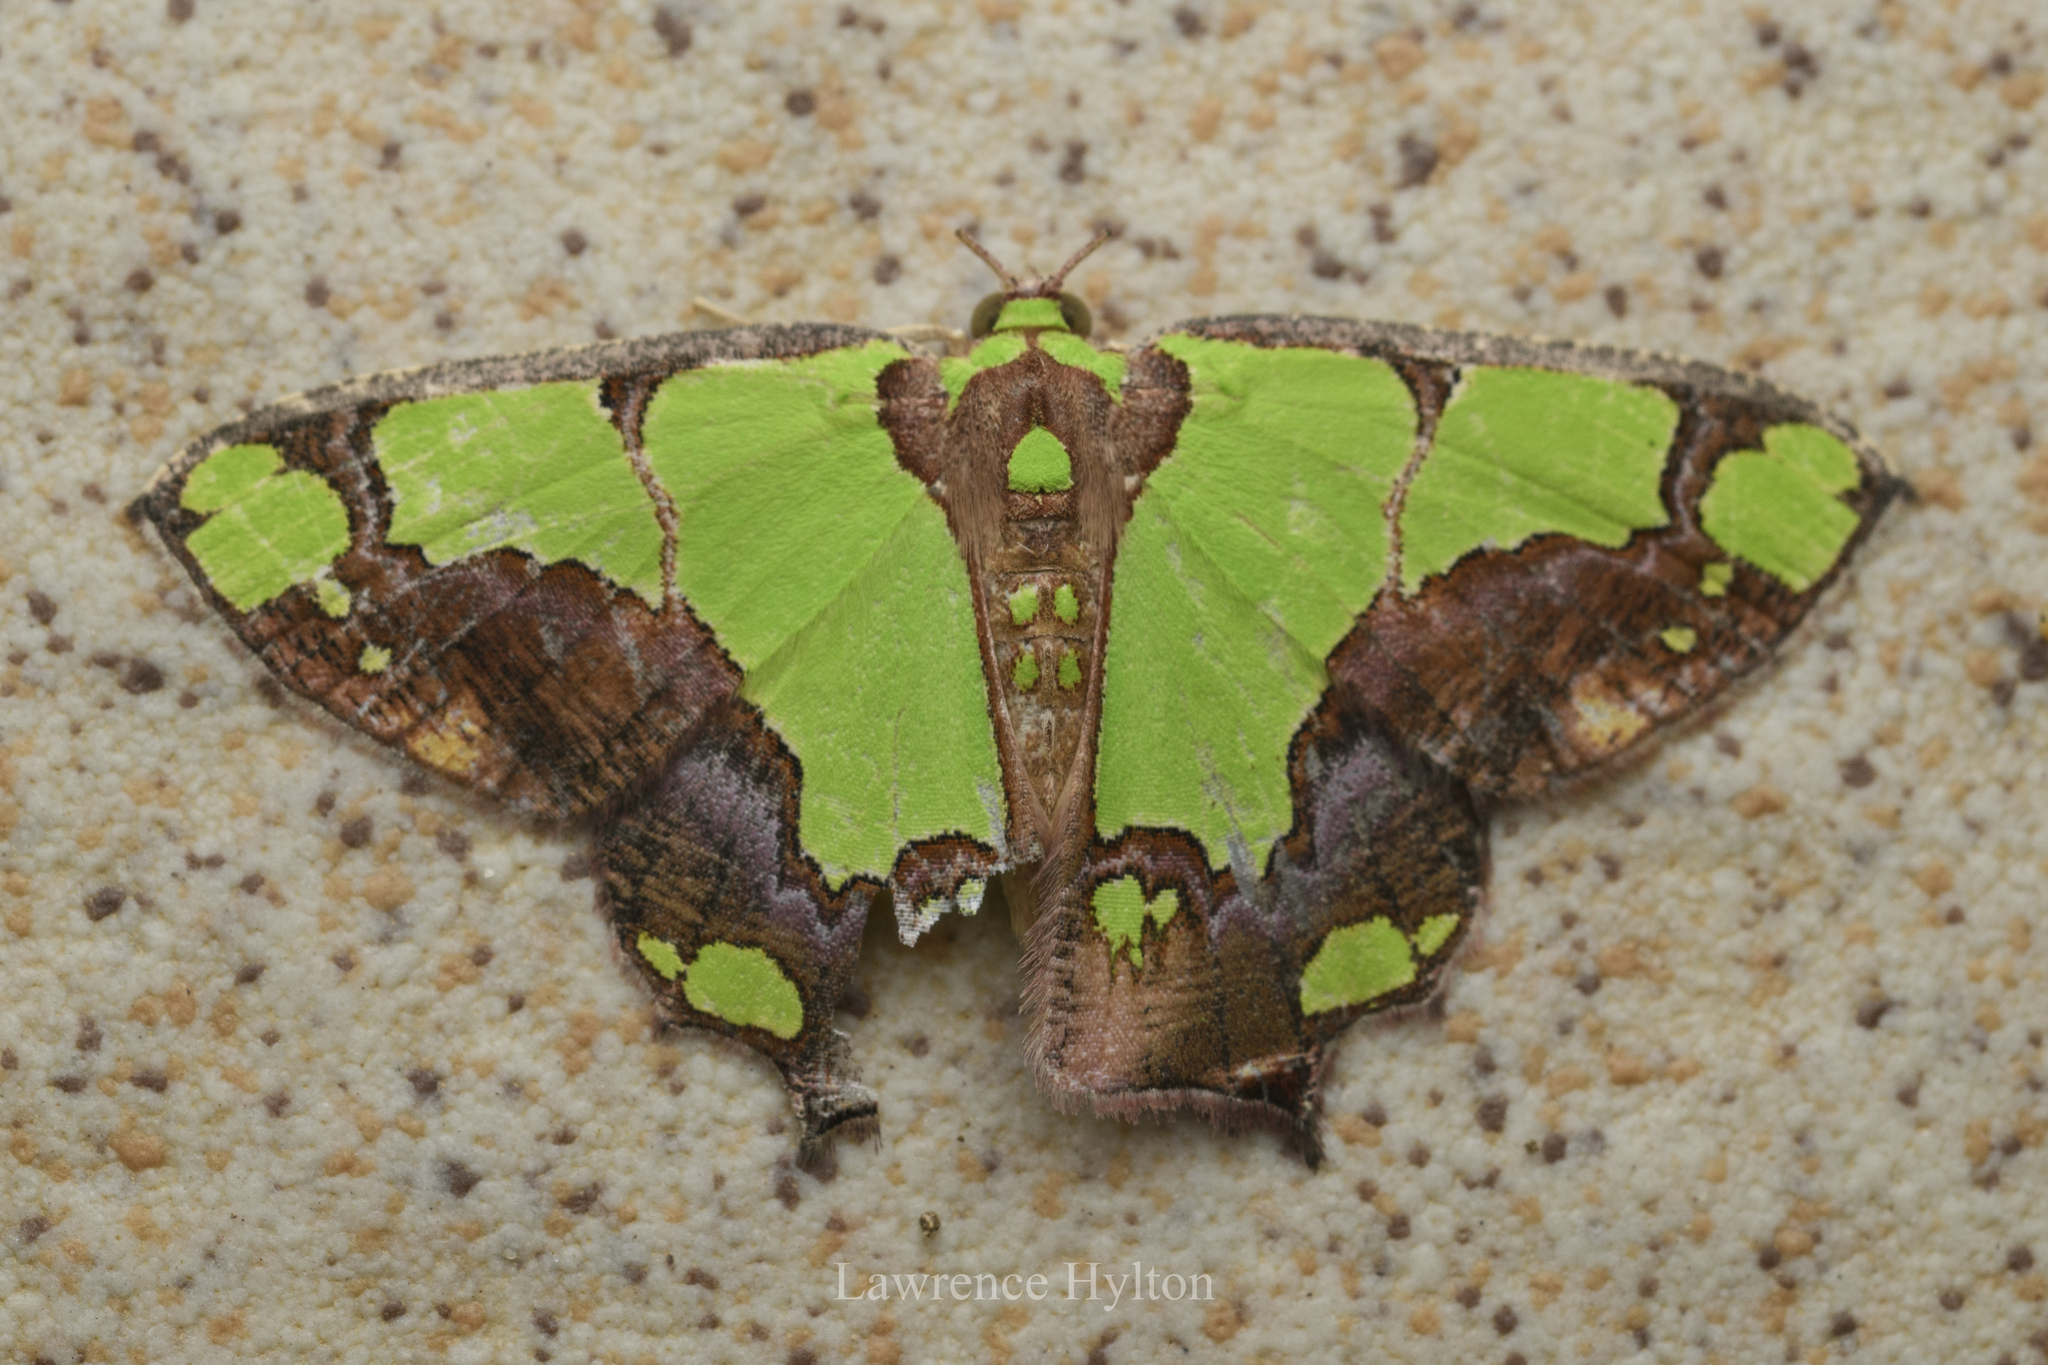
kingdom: Animalia
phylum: Arthropoda
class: Insecta
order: Lepidoptera
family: Geometridae
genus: Agathia
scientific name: Agathia arcuata
